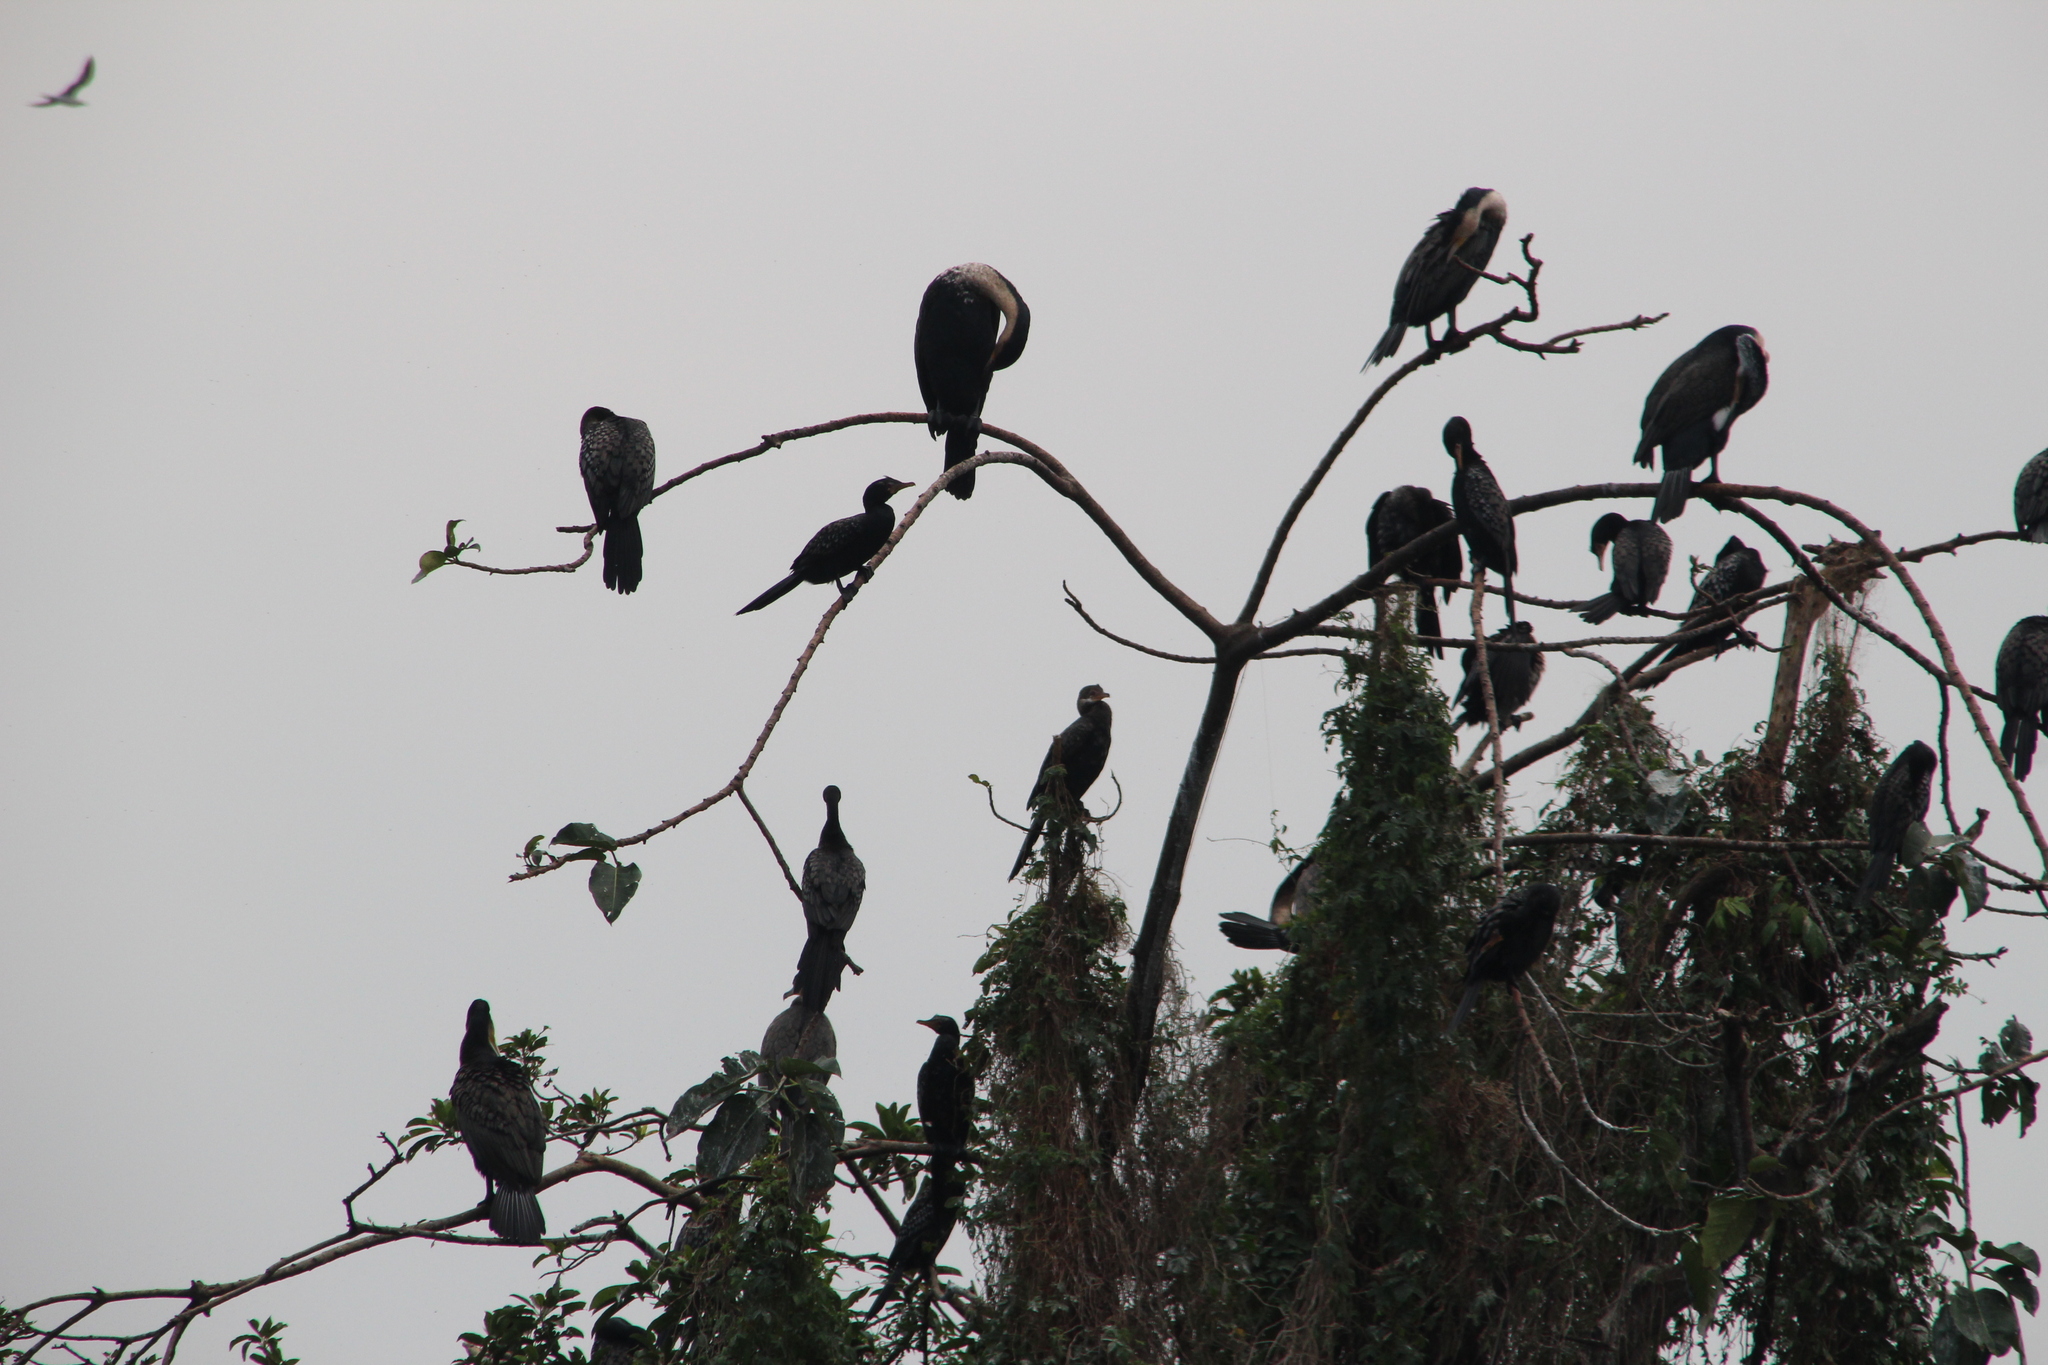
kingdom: Animalia
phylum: Chordata
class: Aves
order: Suliformes
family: Phalacrocoracidae
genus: Phalacrocorax
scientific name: Phalacrocorax carbo
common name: Great cormorant
